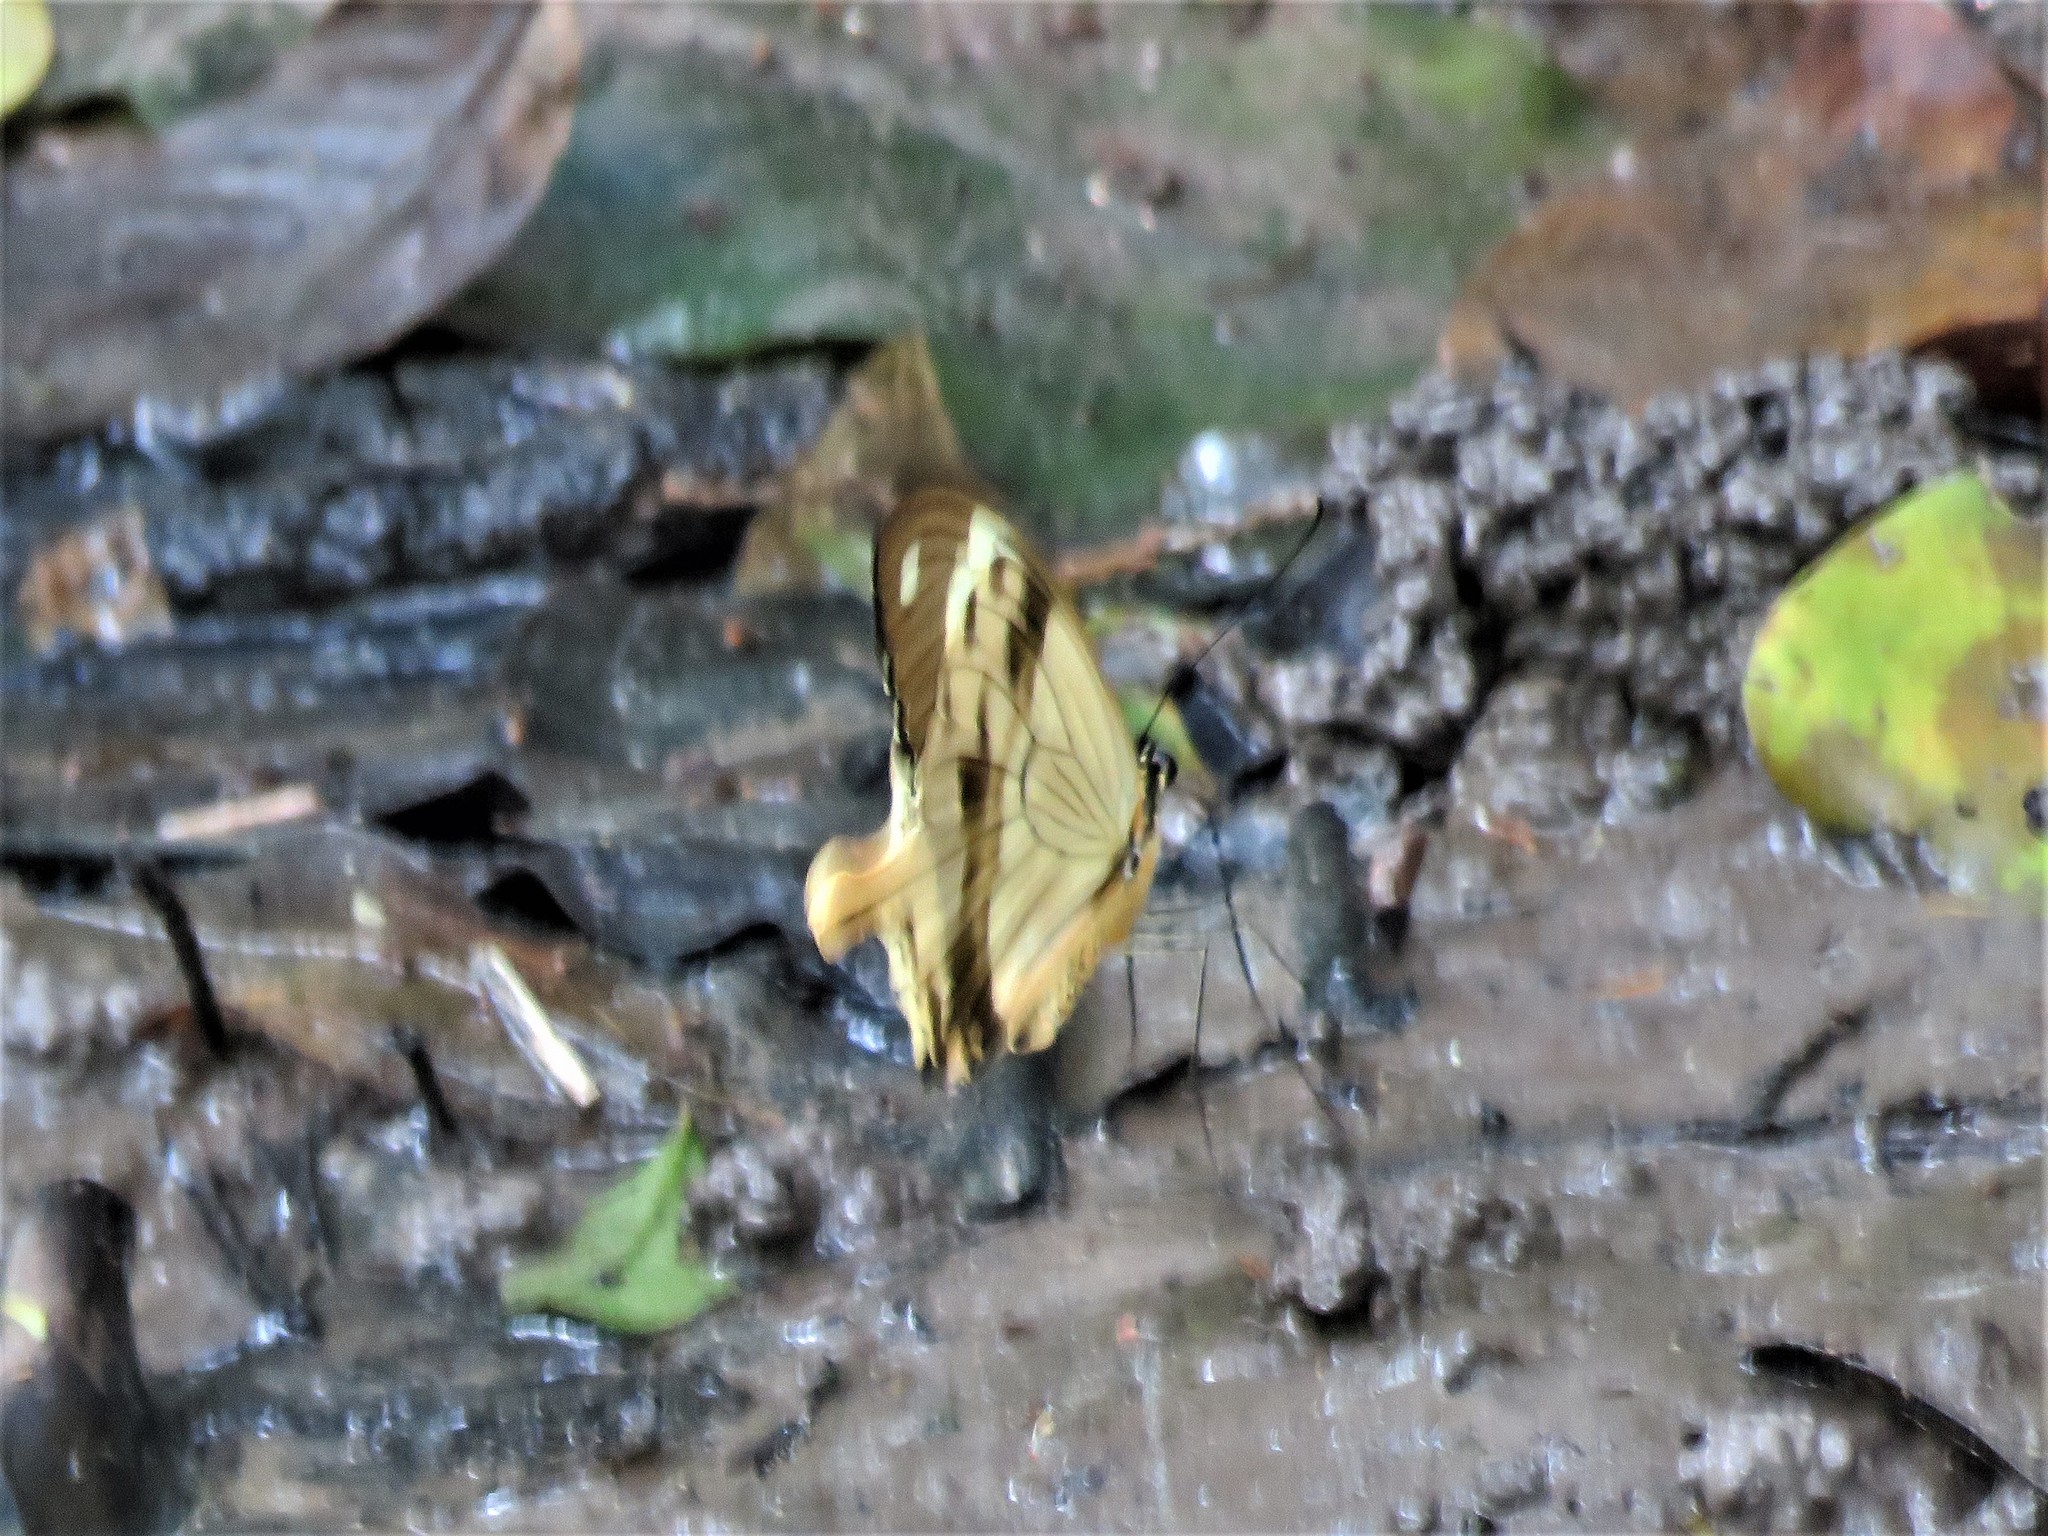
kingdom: Animalia
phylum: Arthropoda
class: Insecta
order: Lepidoptera
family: Papilionidae
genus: Papilio
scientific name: Papilio dardanus
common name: Flying handkerchief
